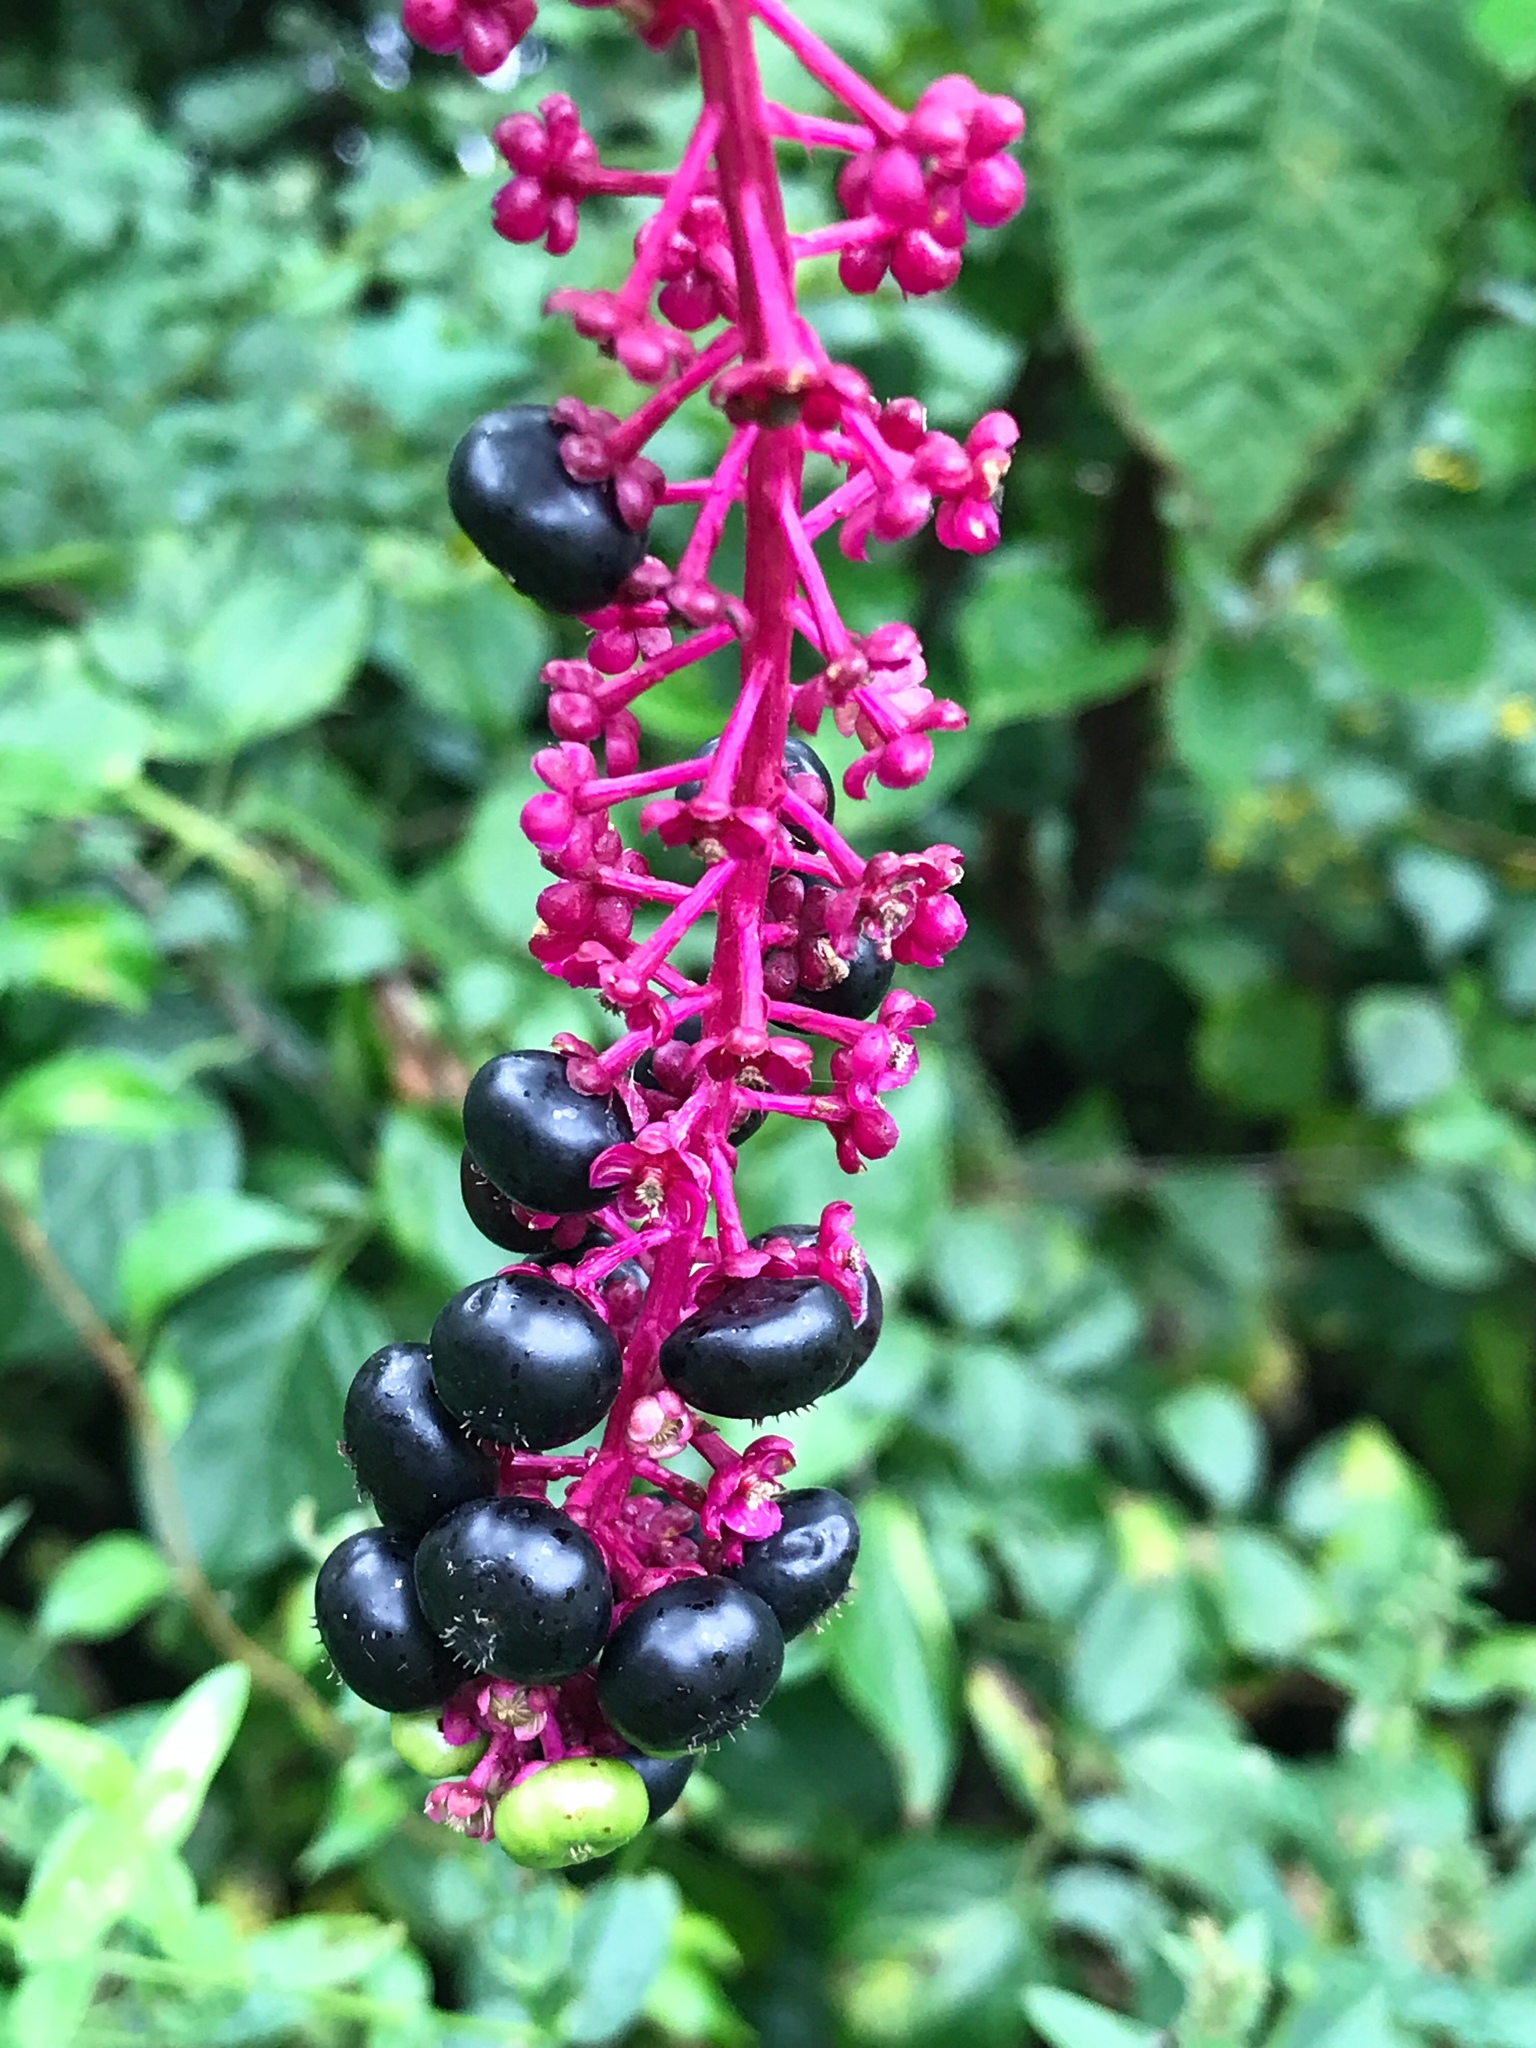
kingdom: Plantae
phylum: Tracheophyta
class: Magnoliopsida
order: Caryophyllales
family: Phytolaccaceae
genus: Phytolacca
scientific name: Phytolacca americana
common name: American pokeweed
